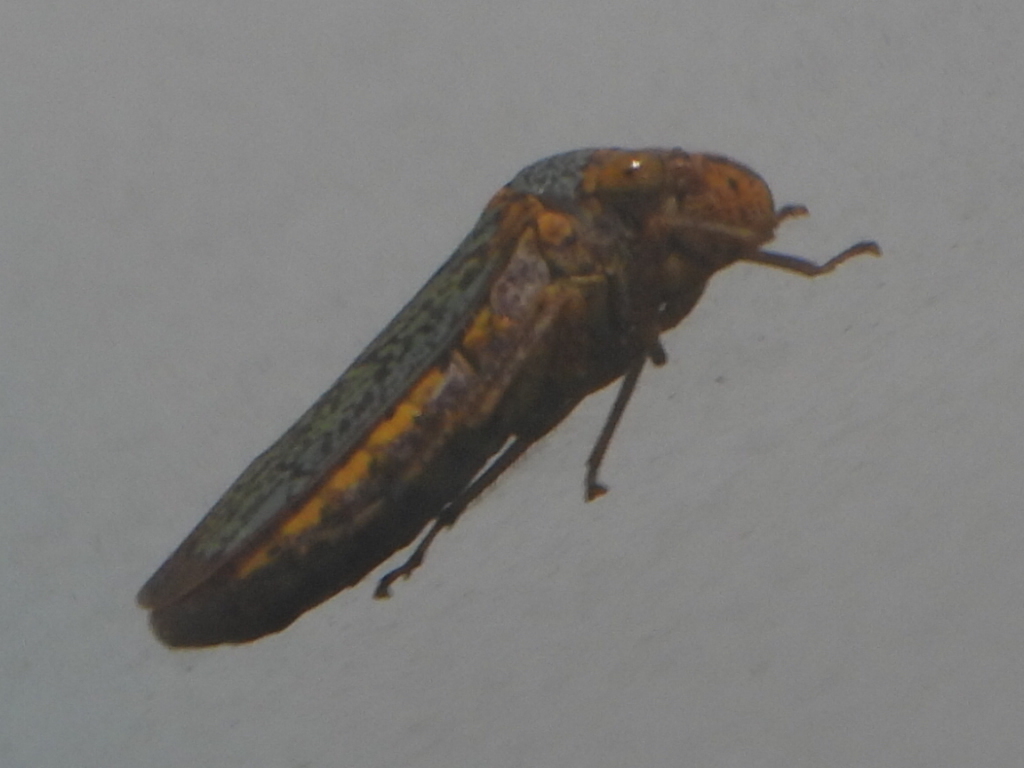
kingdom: Animalia
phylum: Arthropoda
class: Insecta
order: Hemiptera
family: Cicadellidae
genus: Oncometopia
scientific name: Oncometopia orbona
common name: Broad-headed sharpshooter
